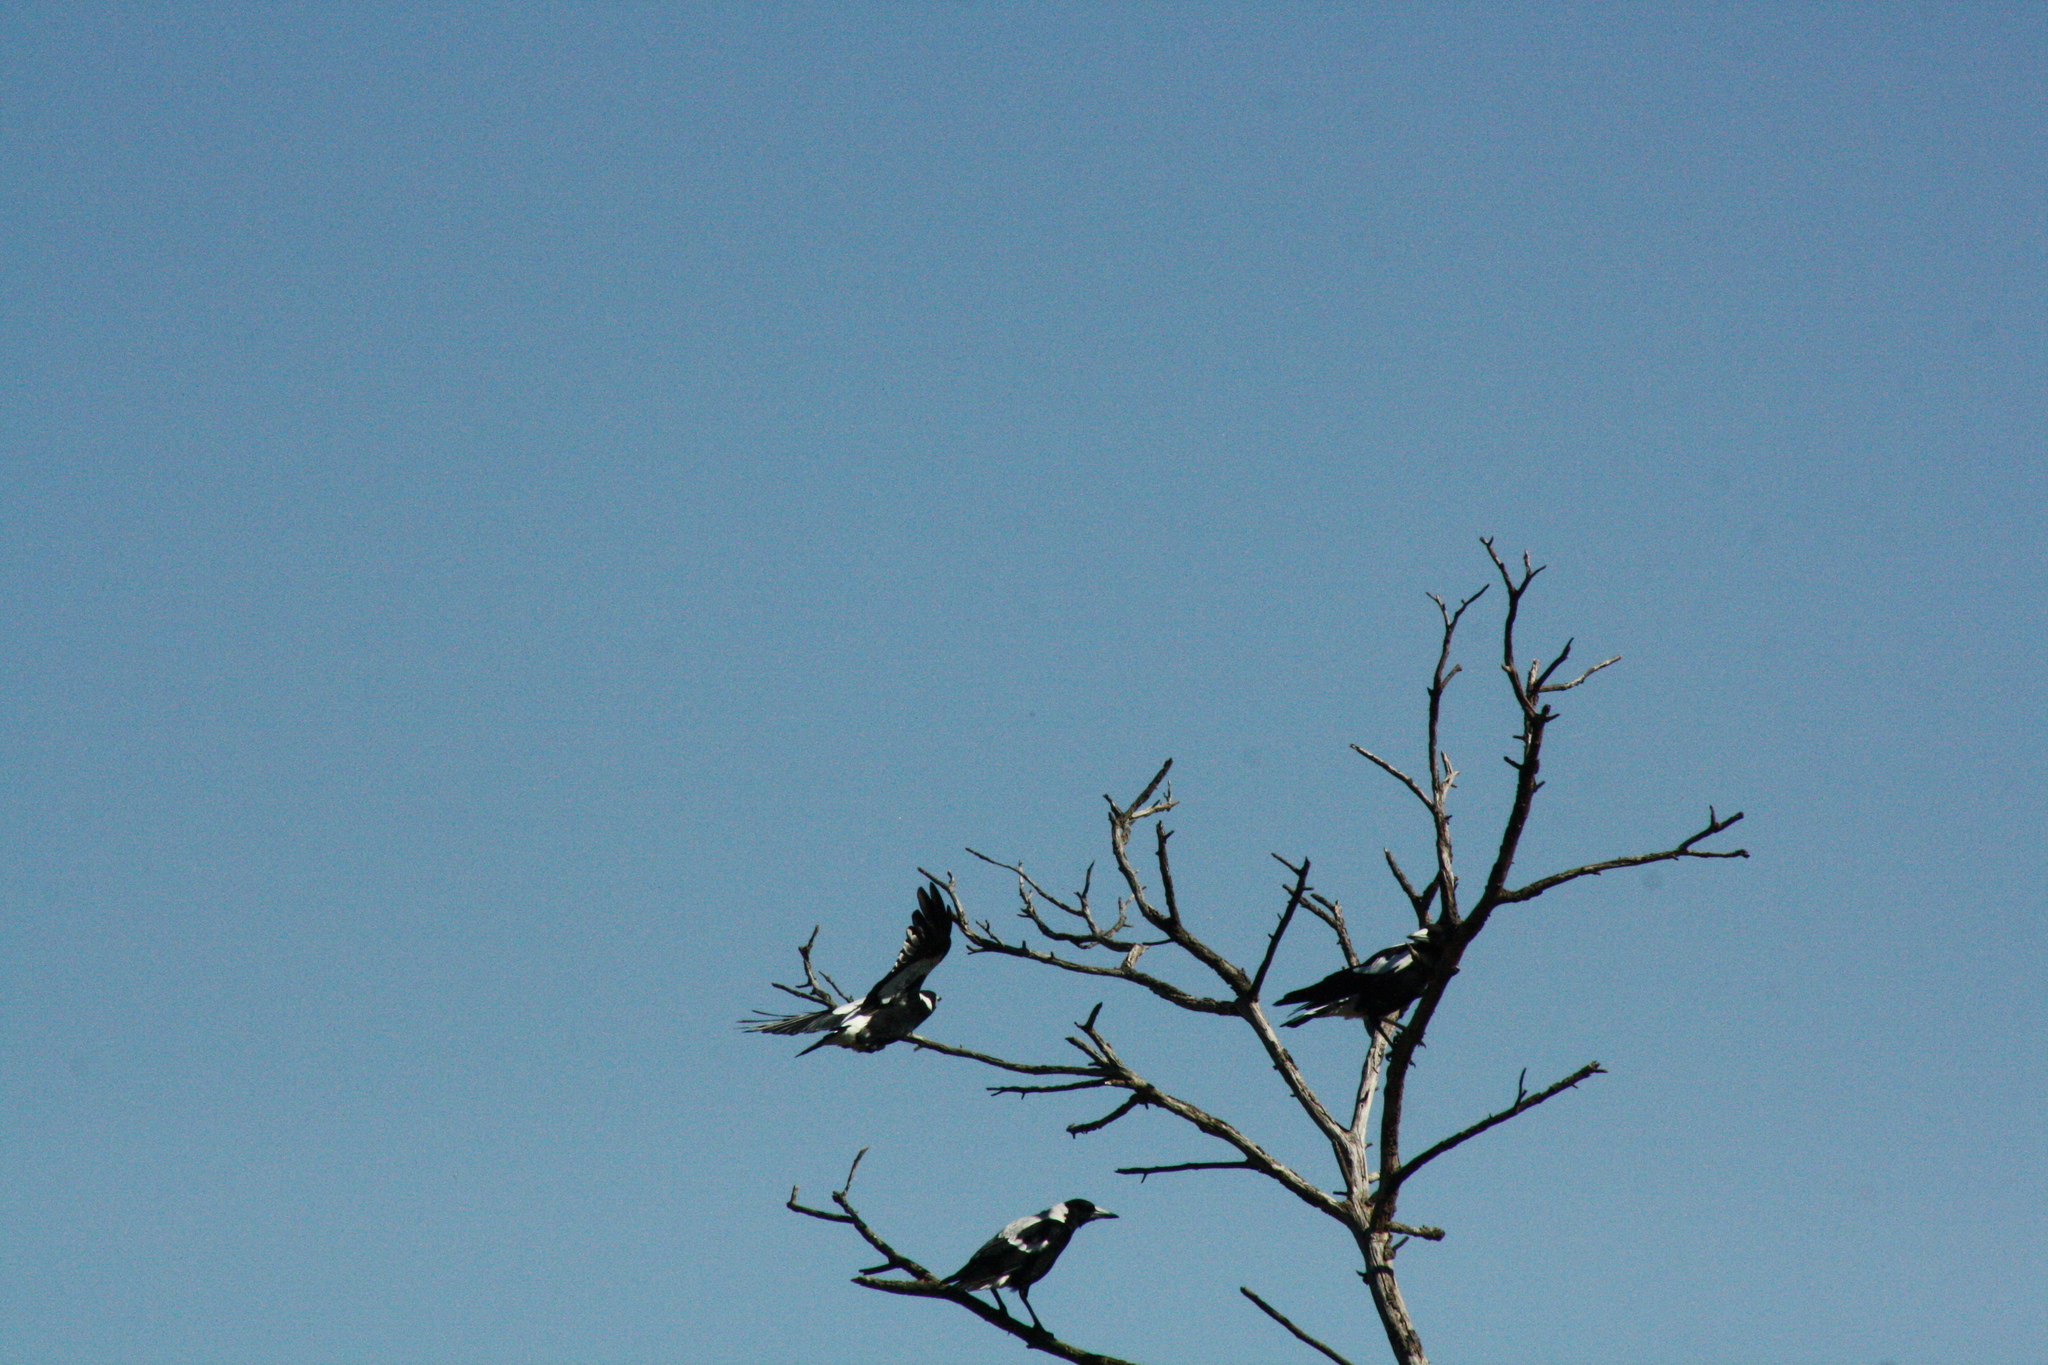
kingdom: Animalia
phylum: Chordata
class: Aves
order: Passeriformes
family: Cracticidae
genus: Gymnorhina
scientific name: Gymnorhina tibicen
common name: Australian magpie
